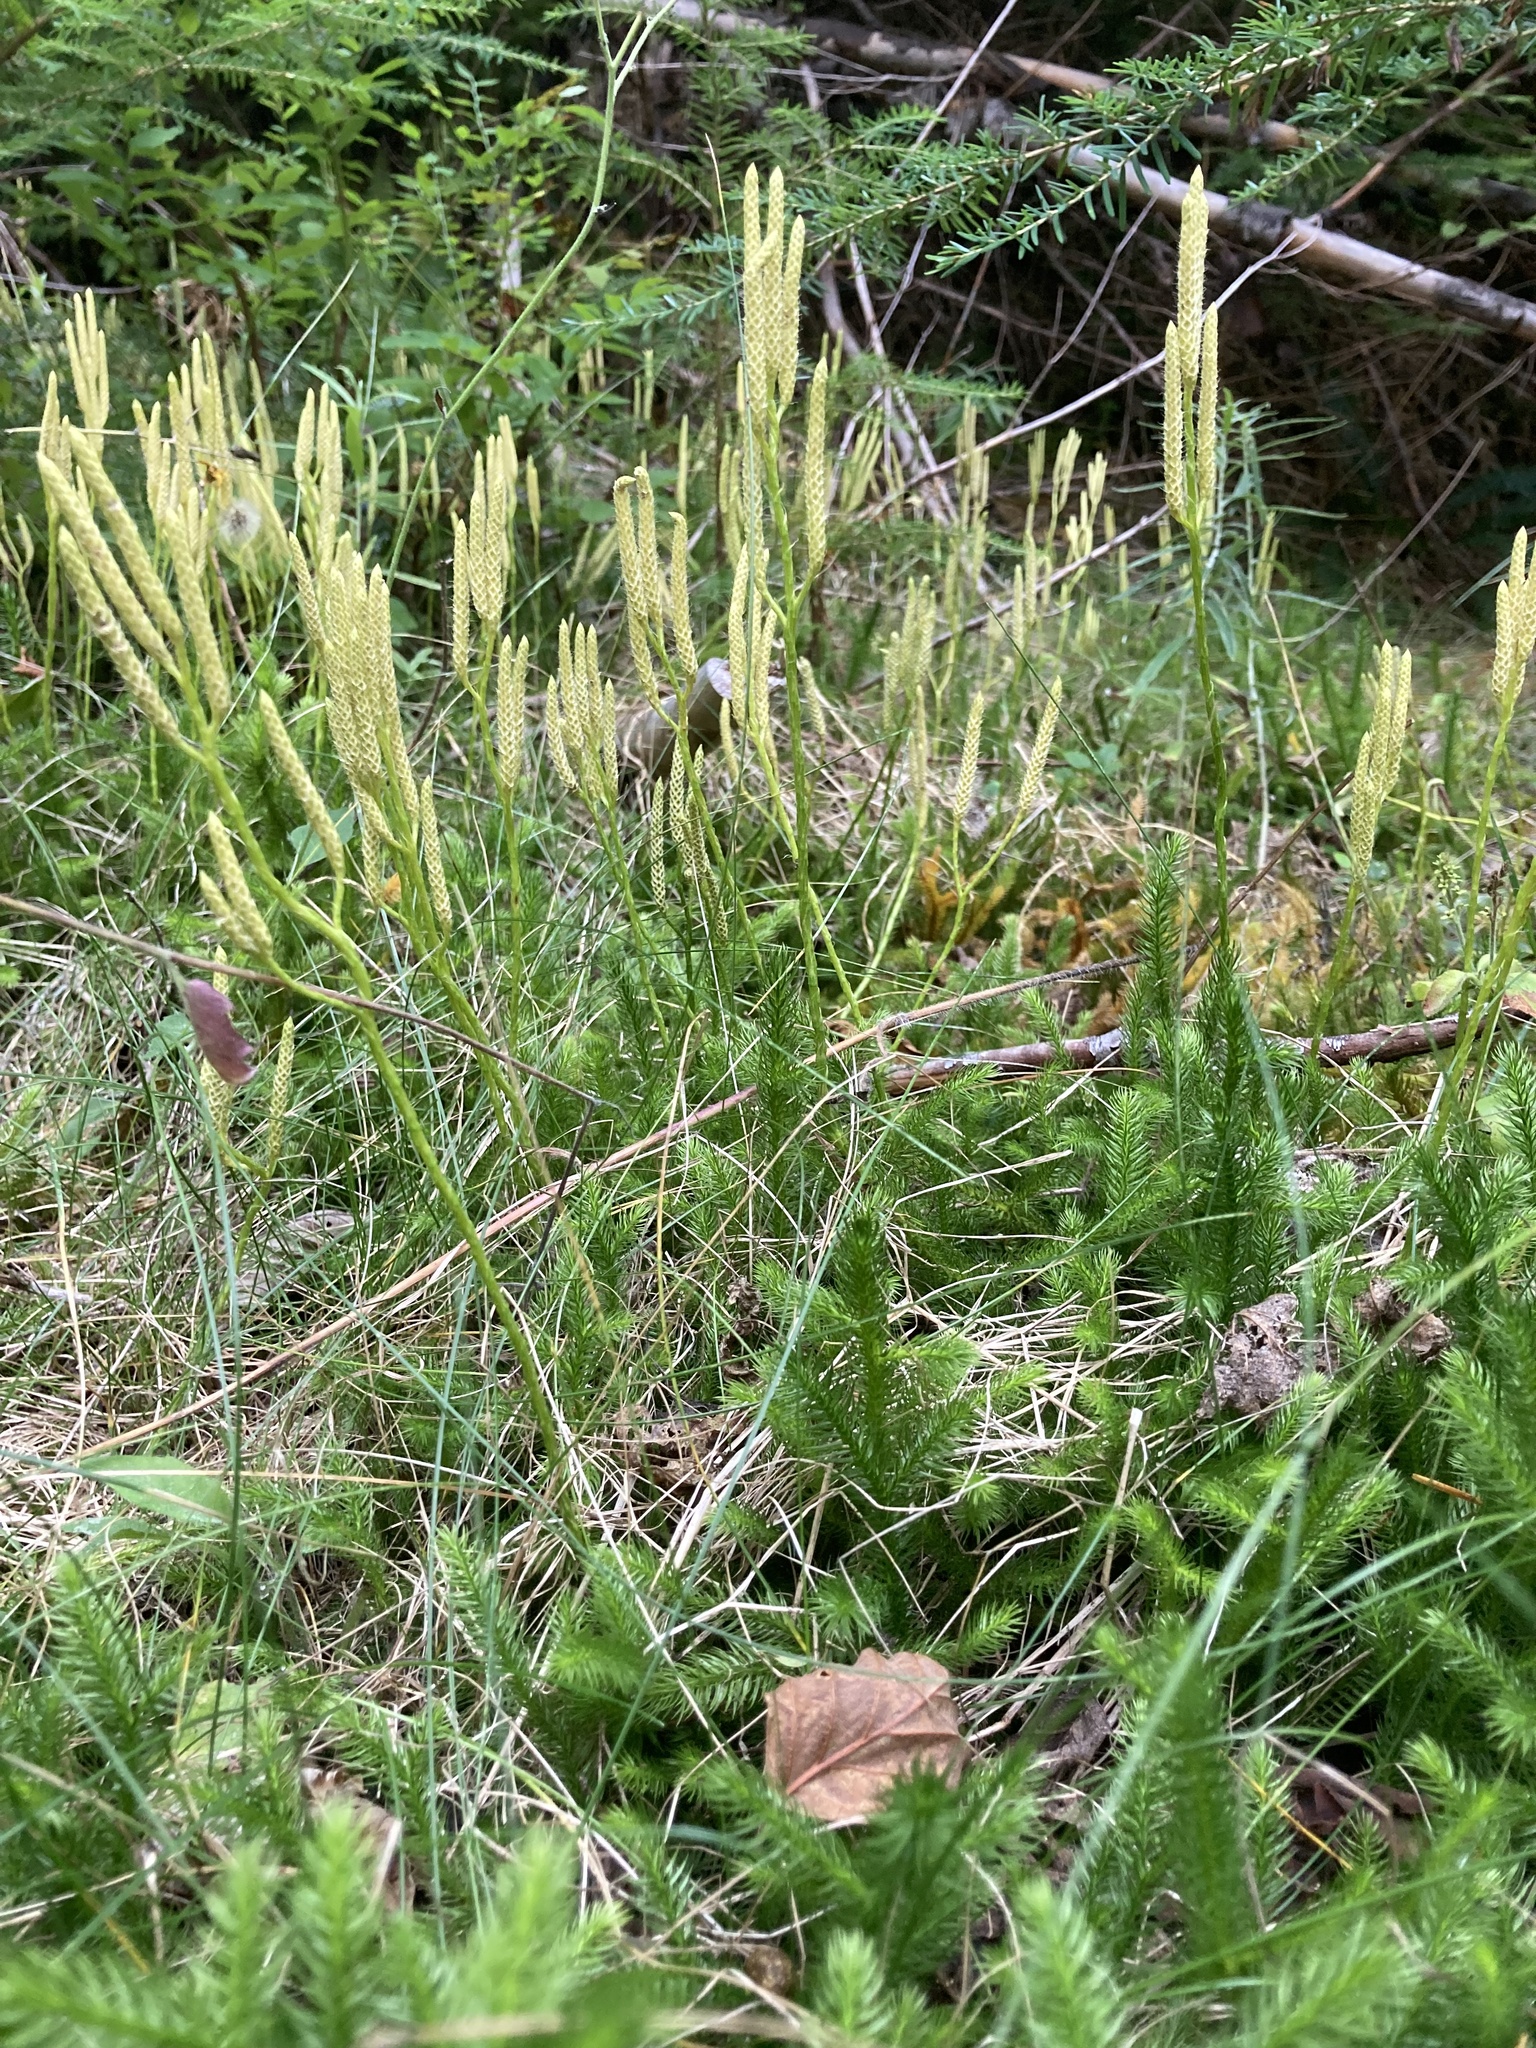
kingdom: Plantae
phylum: Tracheophyta
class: Lycopodiopsida
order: Lycopodiales
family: Lycopodiaceae
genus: Lycopodium
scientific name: Lycopodium clavatum
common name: Stag's-horn clubmoss
